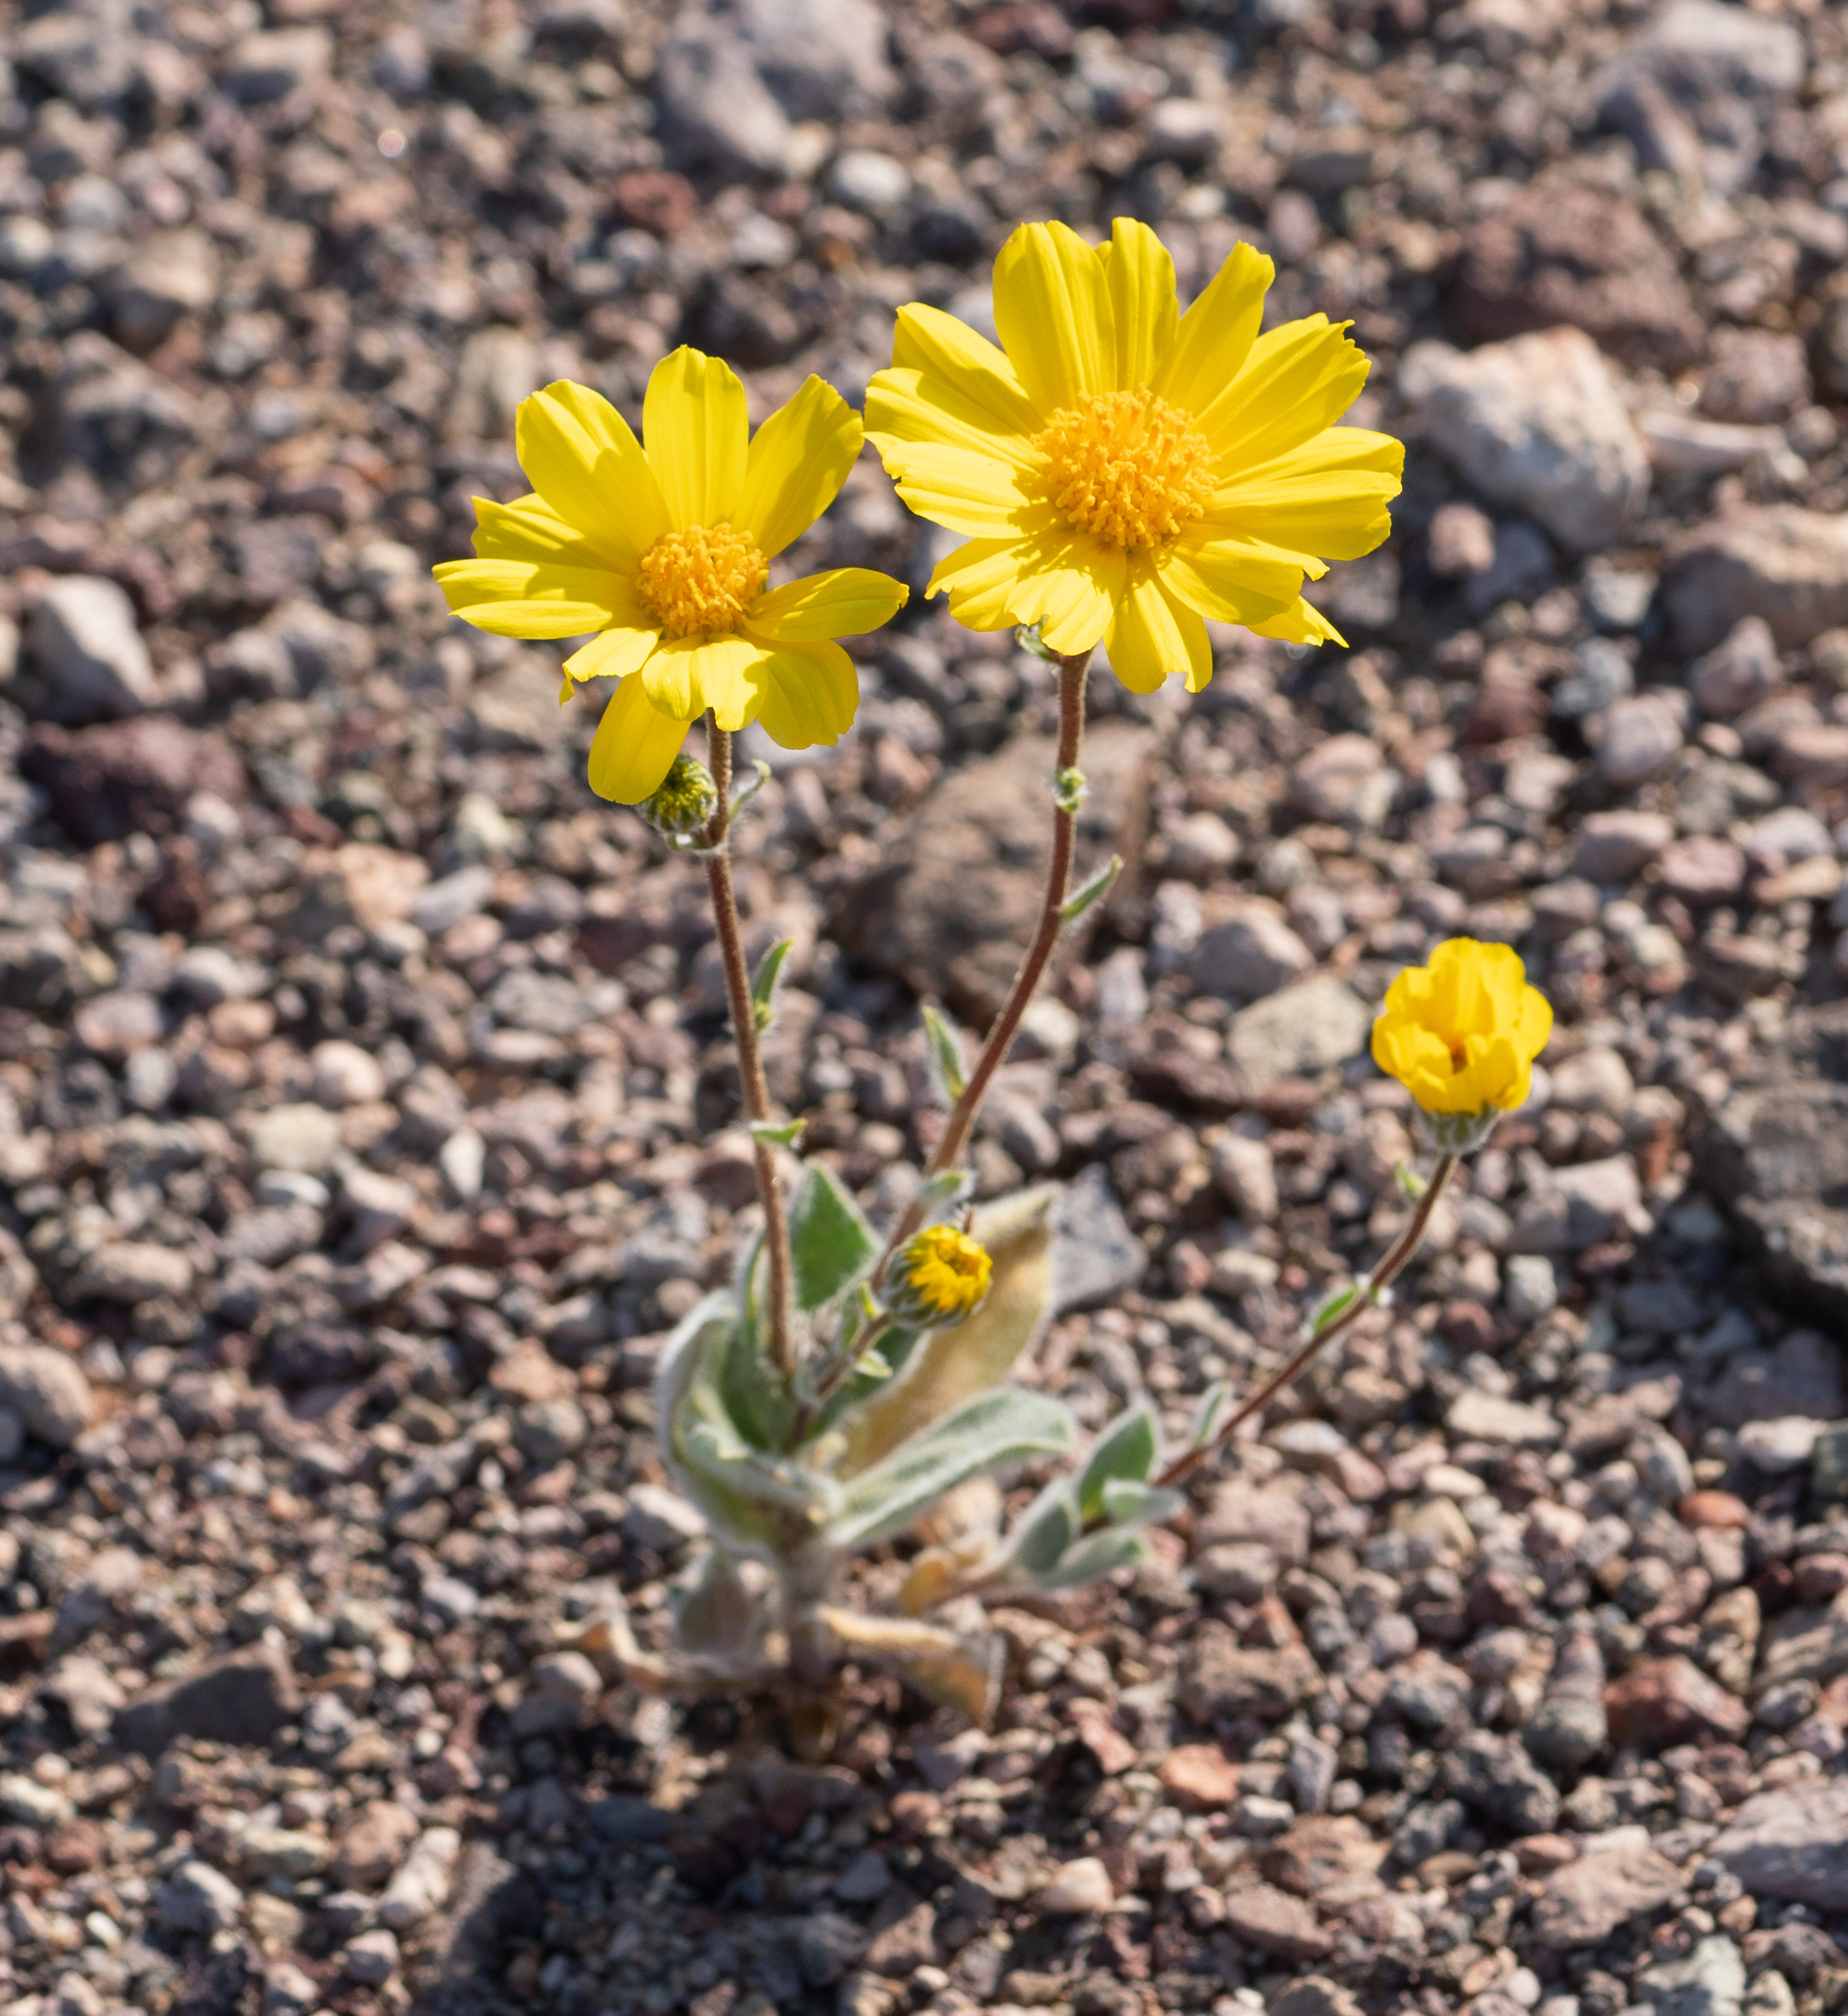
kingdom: Plantae
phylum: Tracheophyta
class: Magnoliopsida
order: Asterales
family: Asteraceae
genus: Geraea
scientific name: Geraea canescens
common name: Desert-gold
